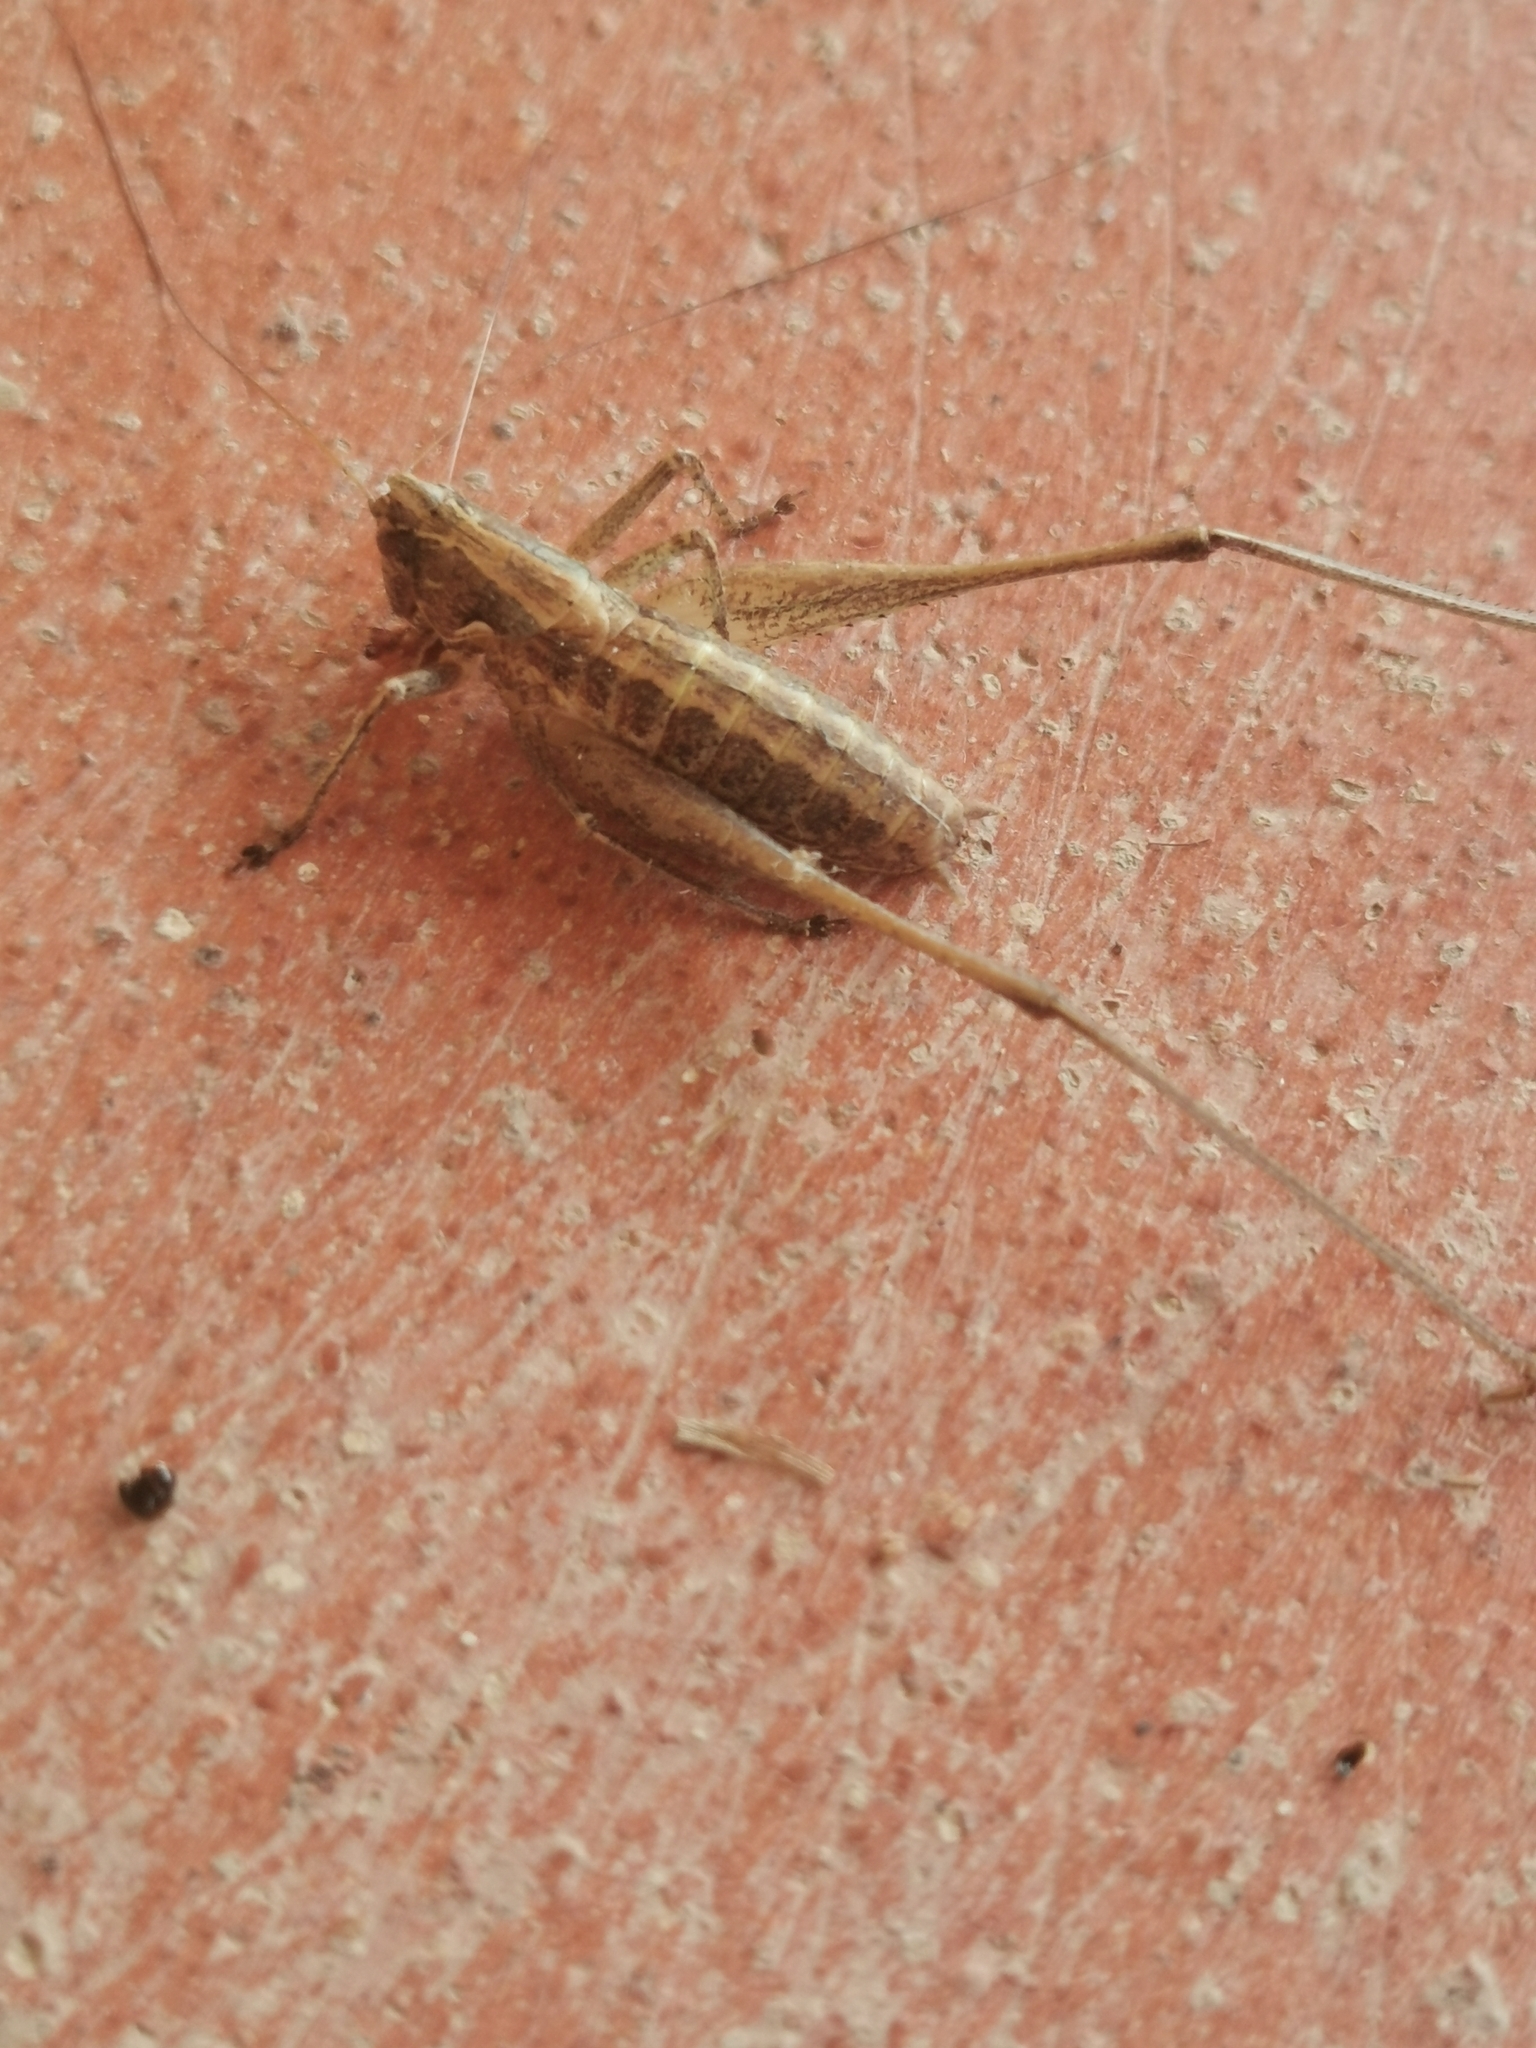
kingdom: Animalia
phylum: Arthropoda
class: Insecta
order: Orthoptera
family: Tettigoniidae
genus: Rhacocleis
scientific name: Rhacocleis germanica
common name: Mediterranean bush-cricket
